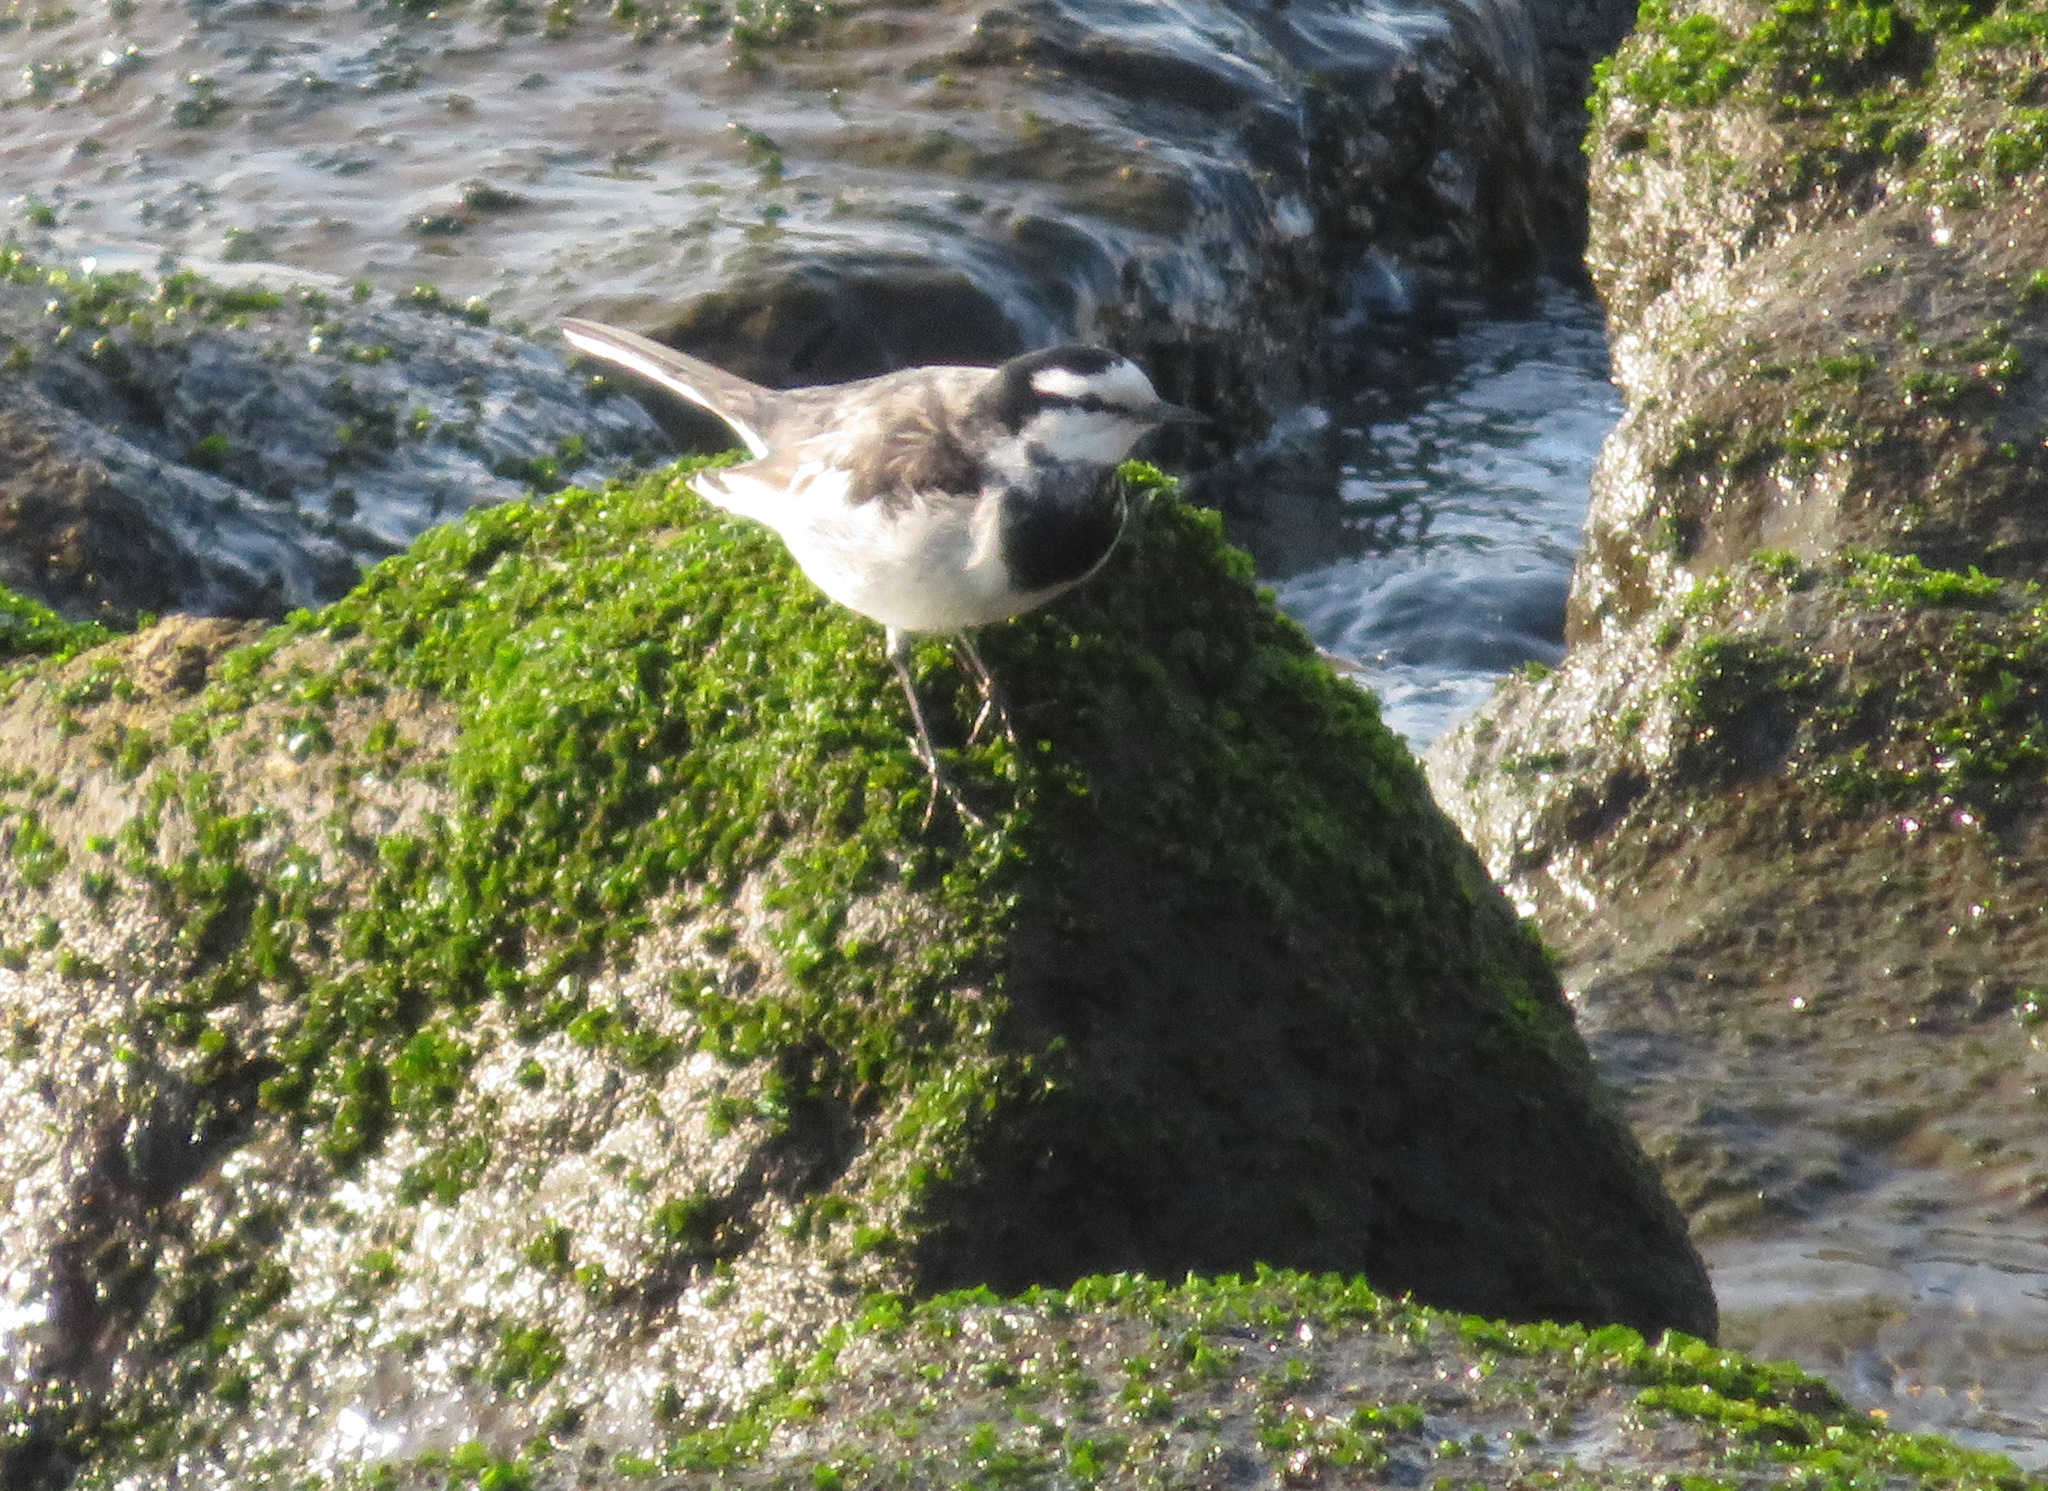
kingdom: Animalia
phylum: Chordata
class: Aves
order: Passeriformes
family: Motacillidae
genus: Motacilla
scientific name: Motacilla alba
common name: White wagtail
